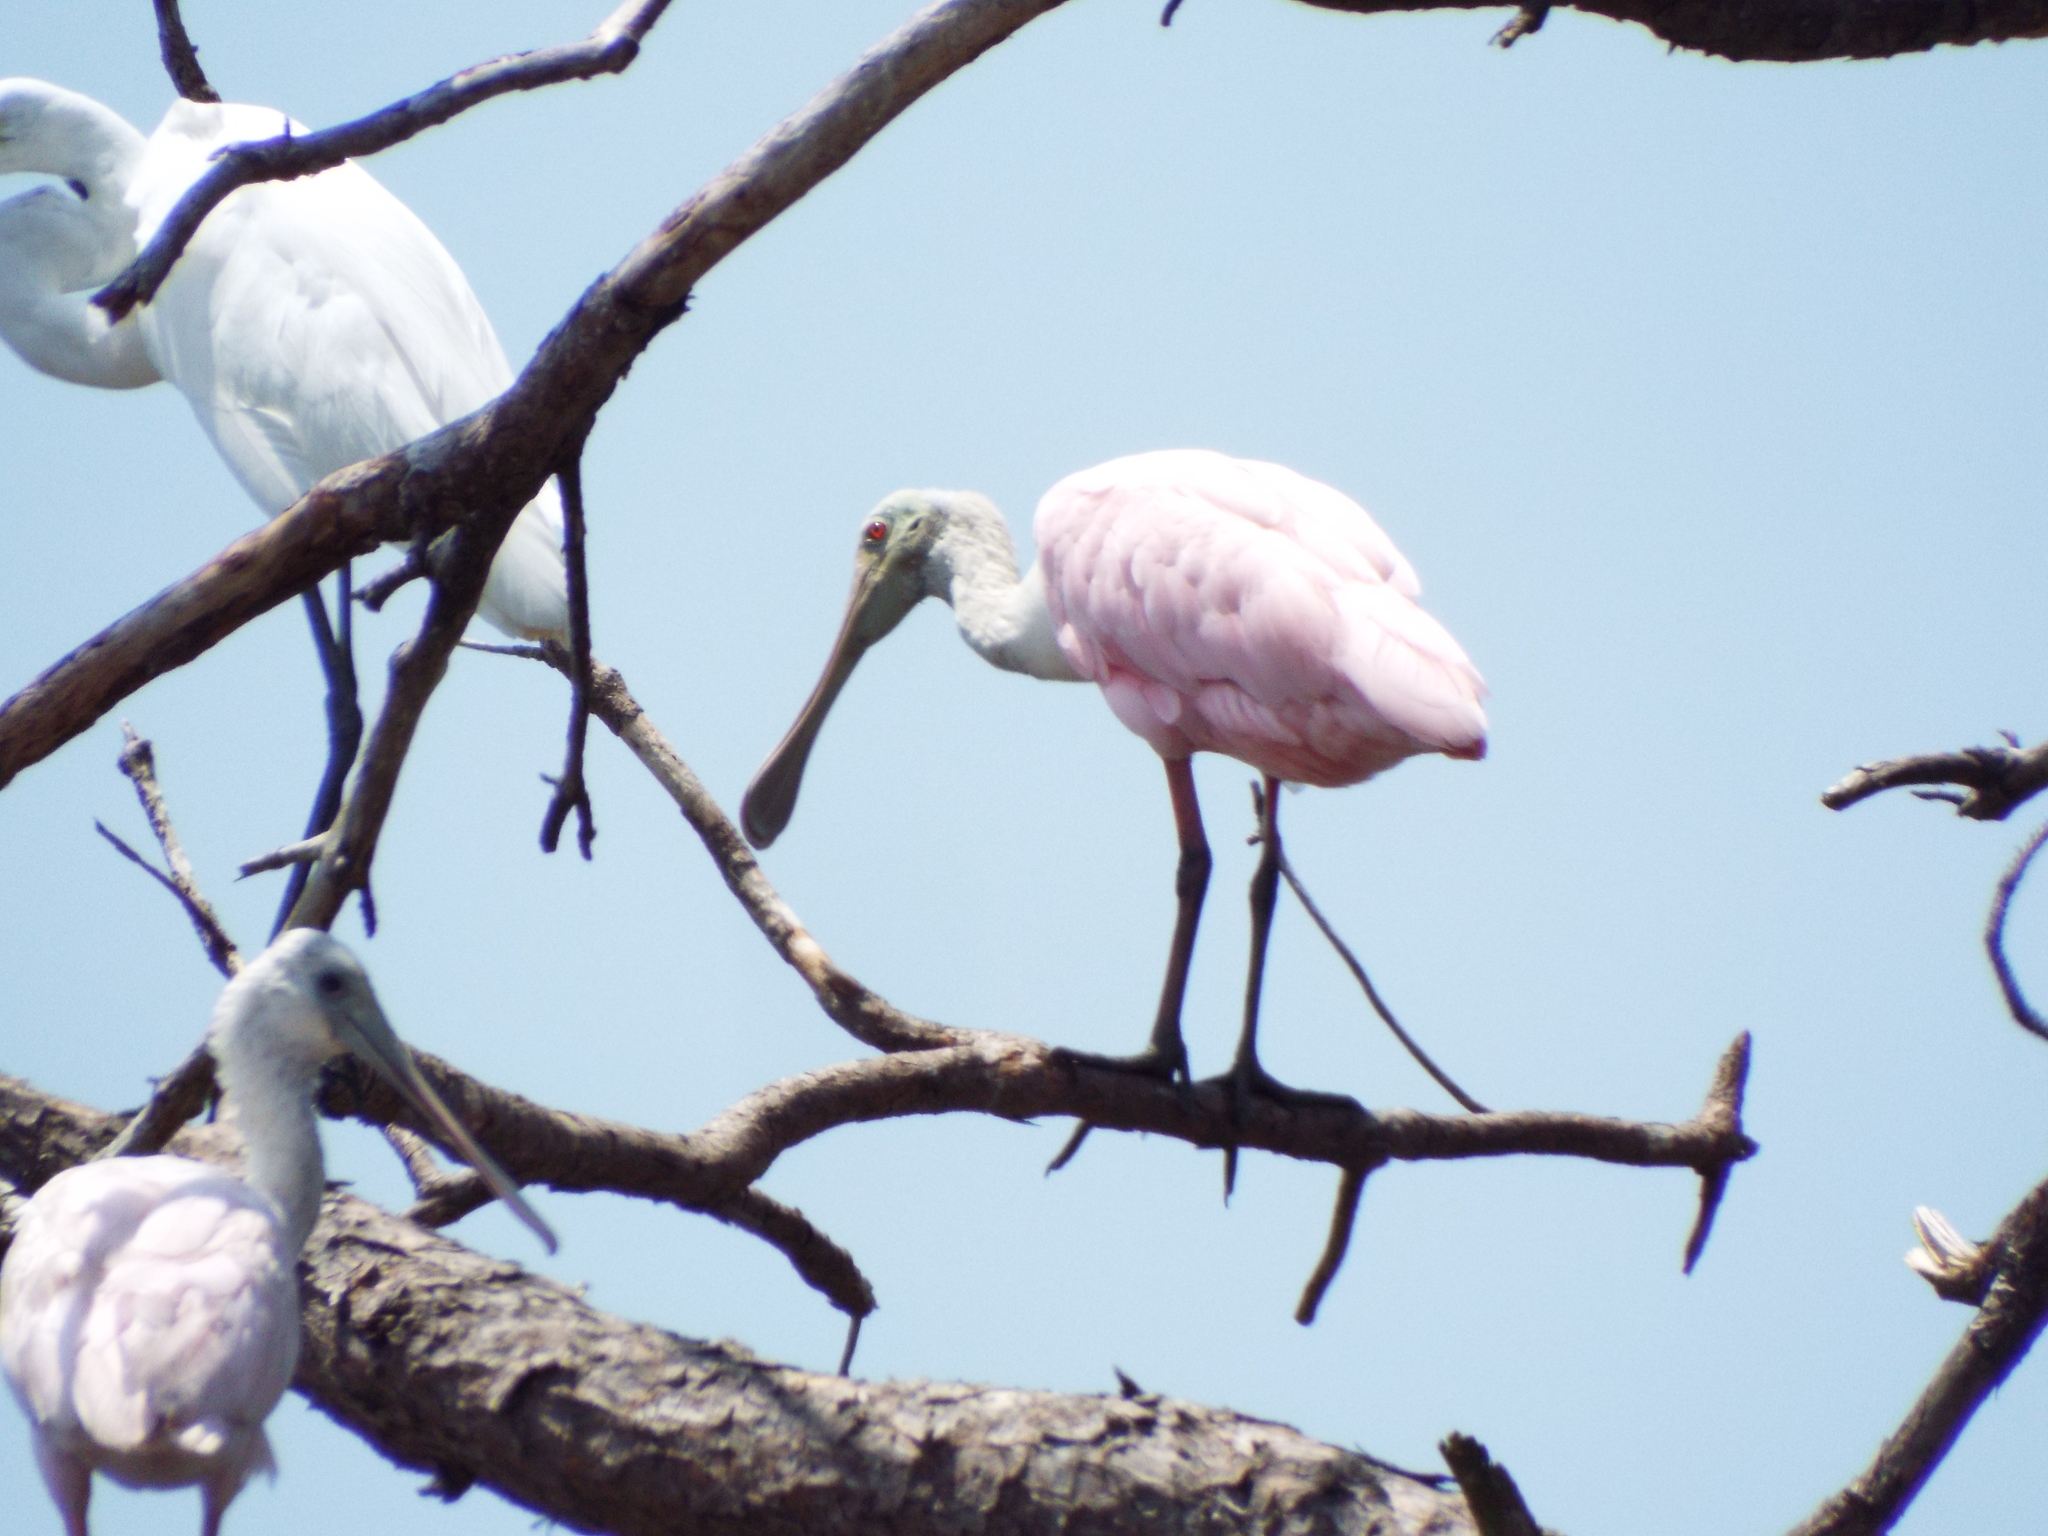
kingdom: Animalia
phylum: Chordata
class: Aves
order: Pelecaniformes
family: Threskiornithidae
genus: Platalea
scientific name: Platalea ajaja
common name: Roseate spoonbill
